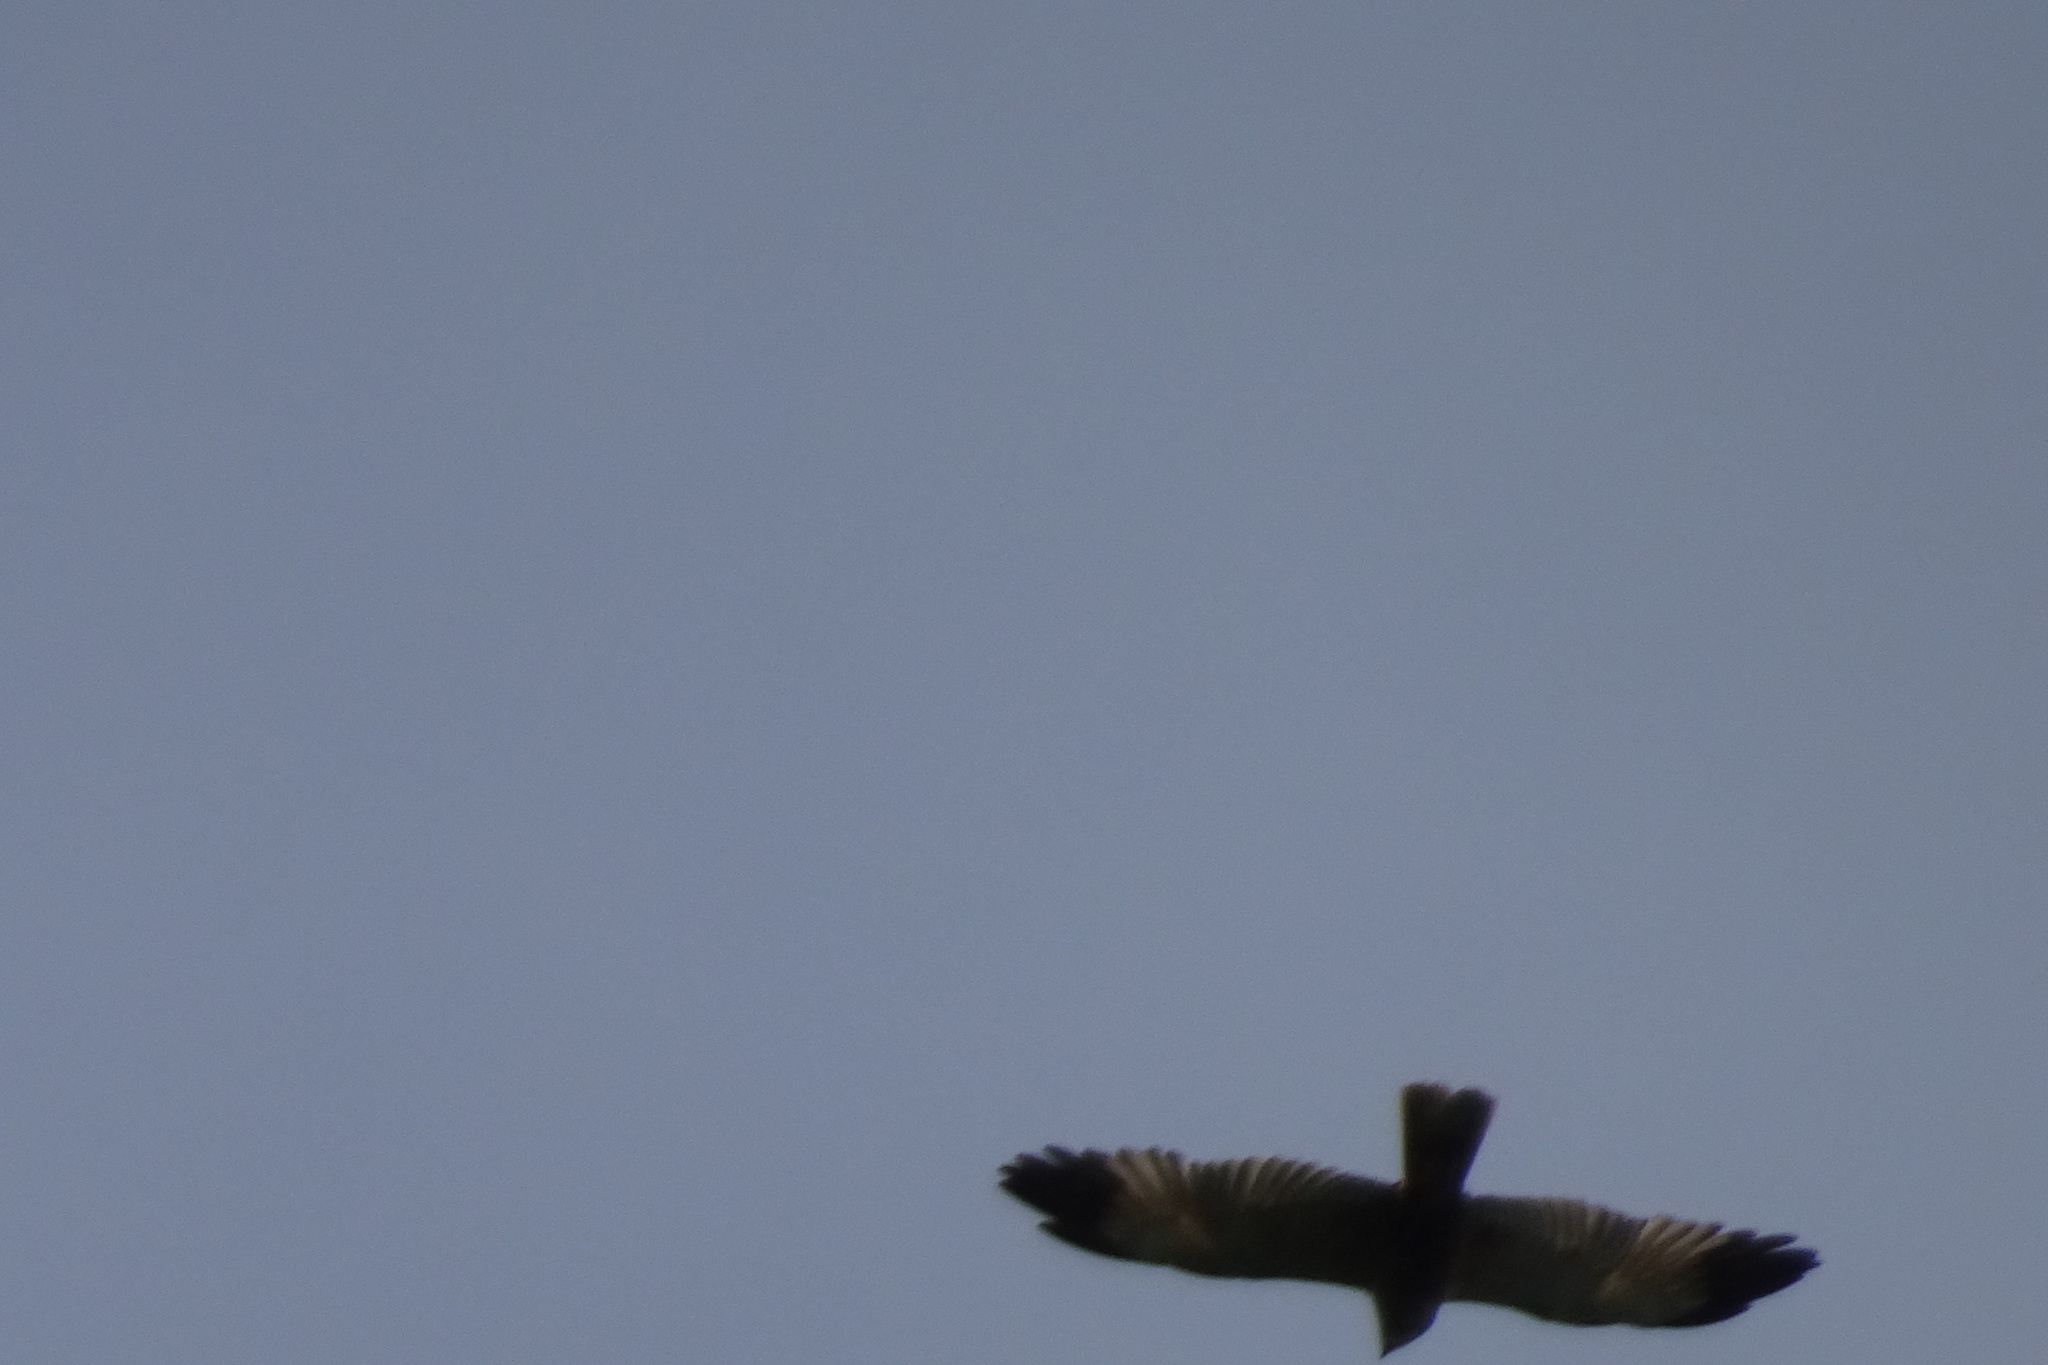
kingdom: Animalia
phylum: Chordata
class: Aves
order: Accipitriformes
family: Accipitridae
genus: Circus
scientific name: Circus aeruginosus
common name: Western marsh harrier
